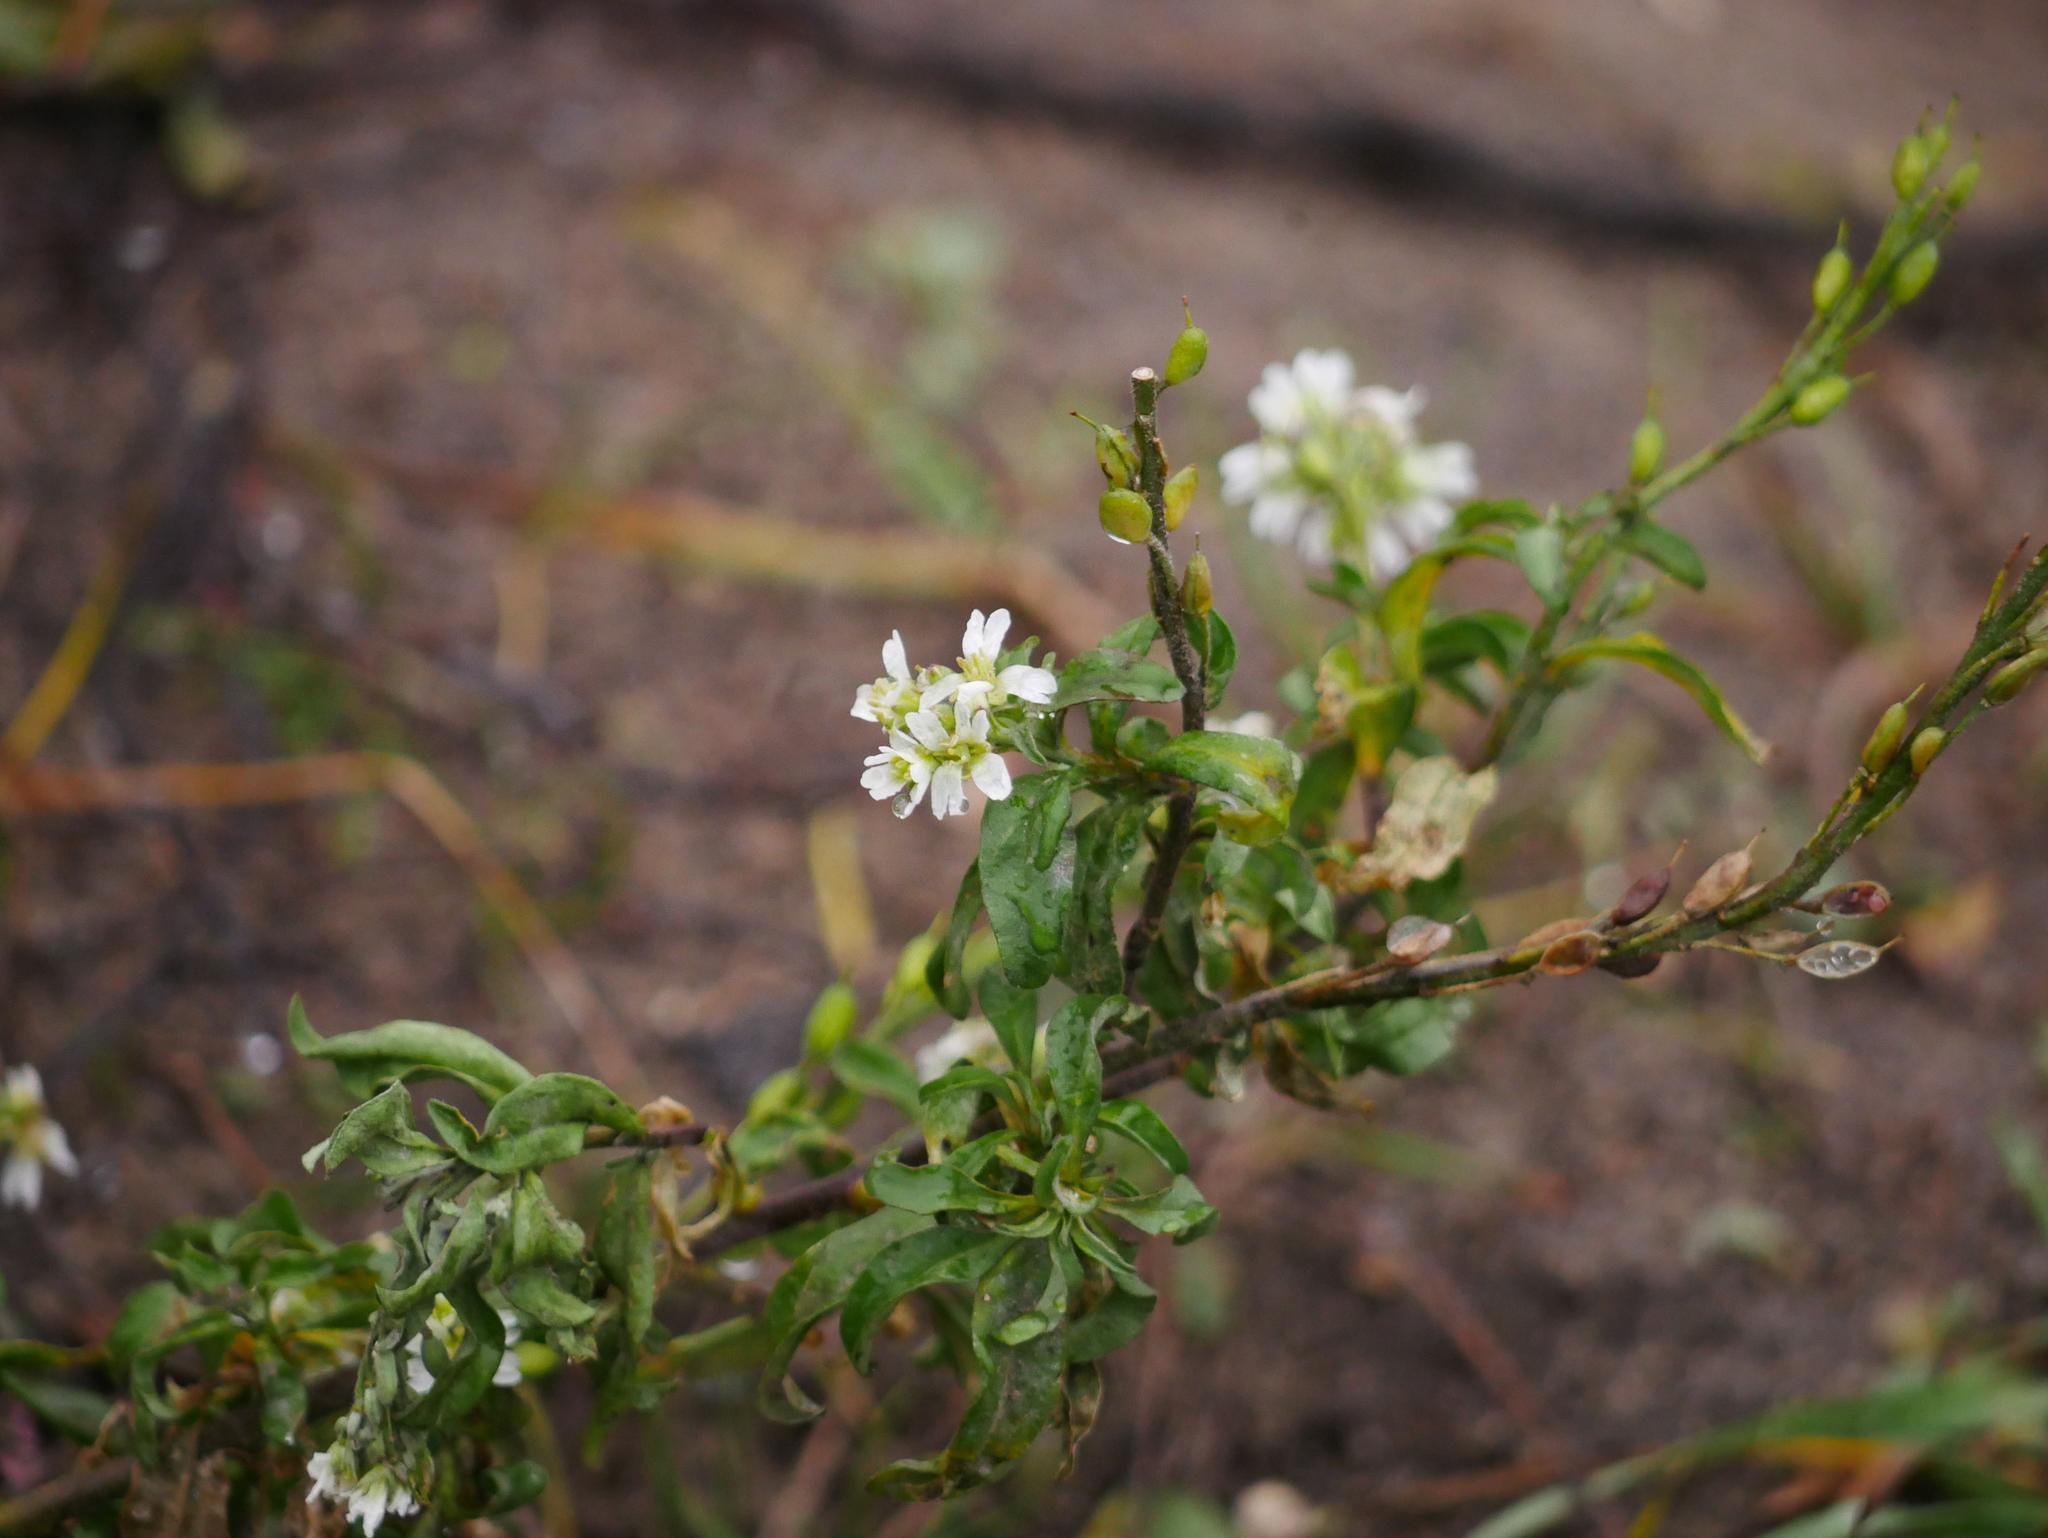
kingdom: Plantae
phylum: Tracheophyta
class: Magnoliopsida
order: Brassicales
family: Brassicaceae
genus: Berteroa
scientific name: Berteroa incana
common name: Hoary alison
